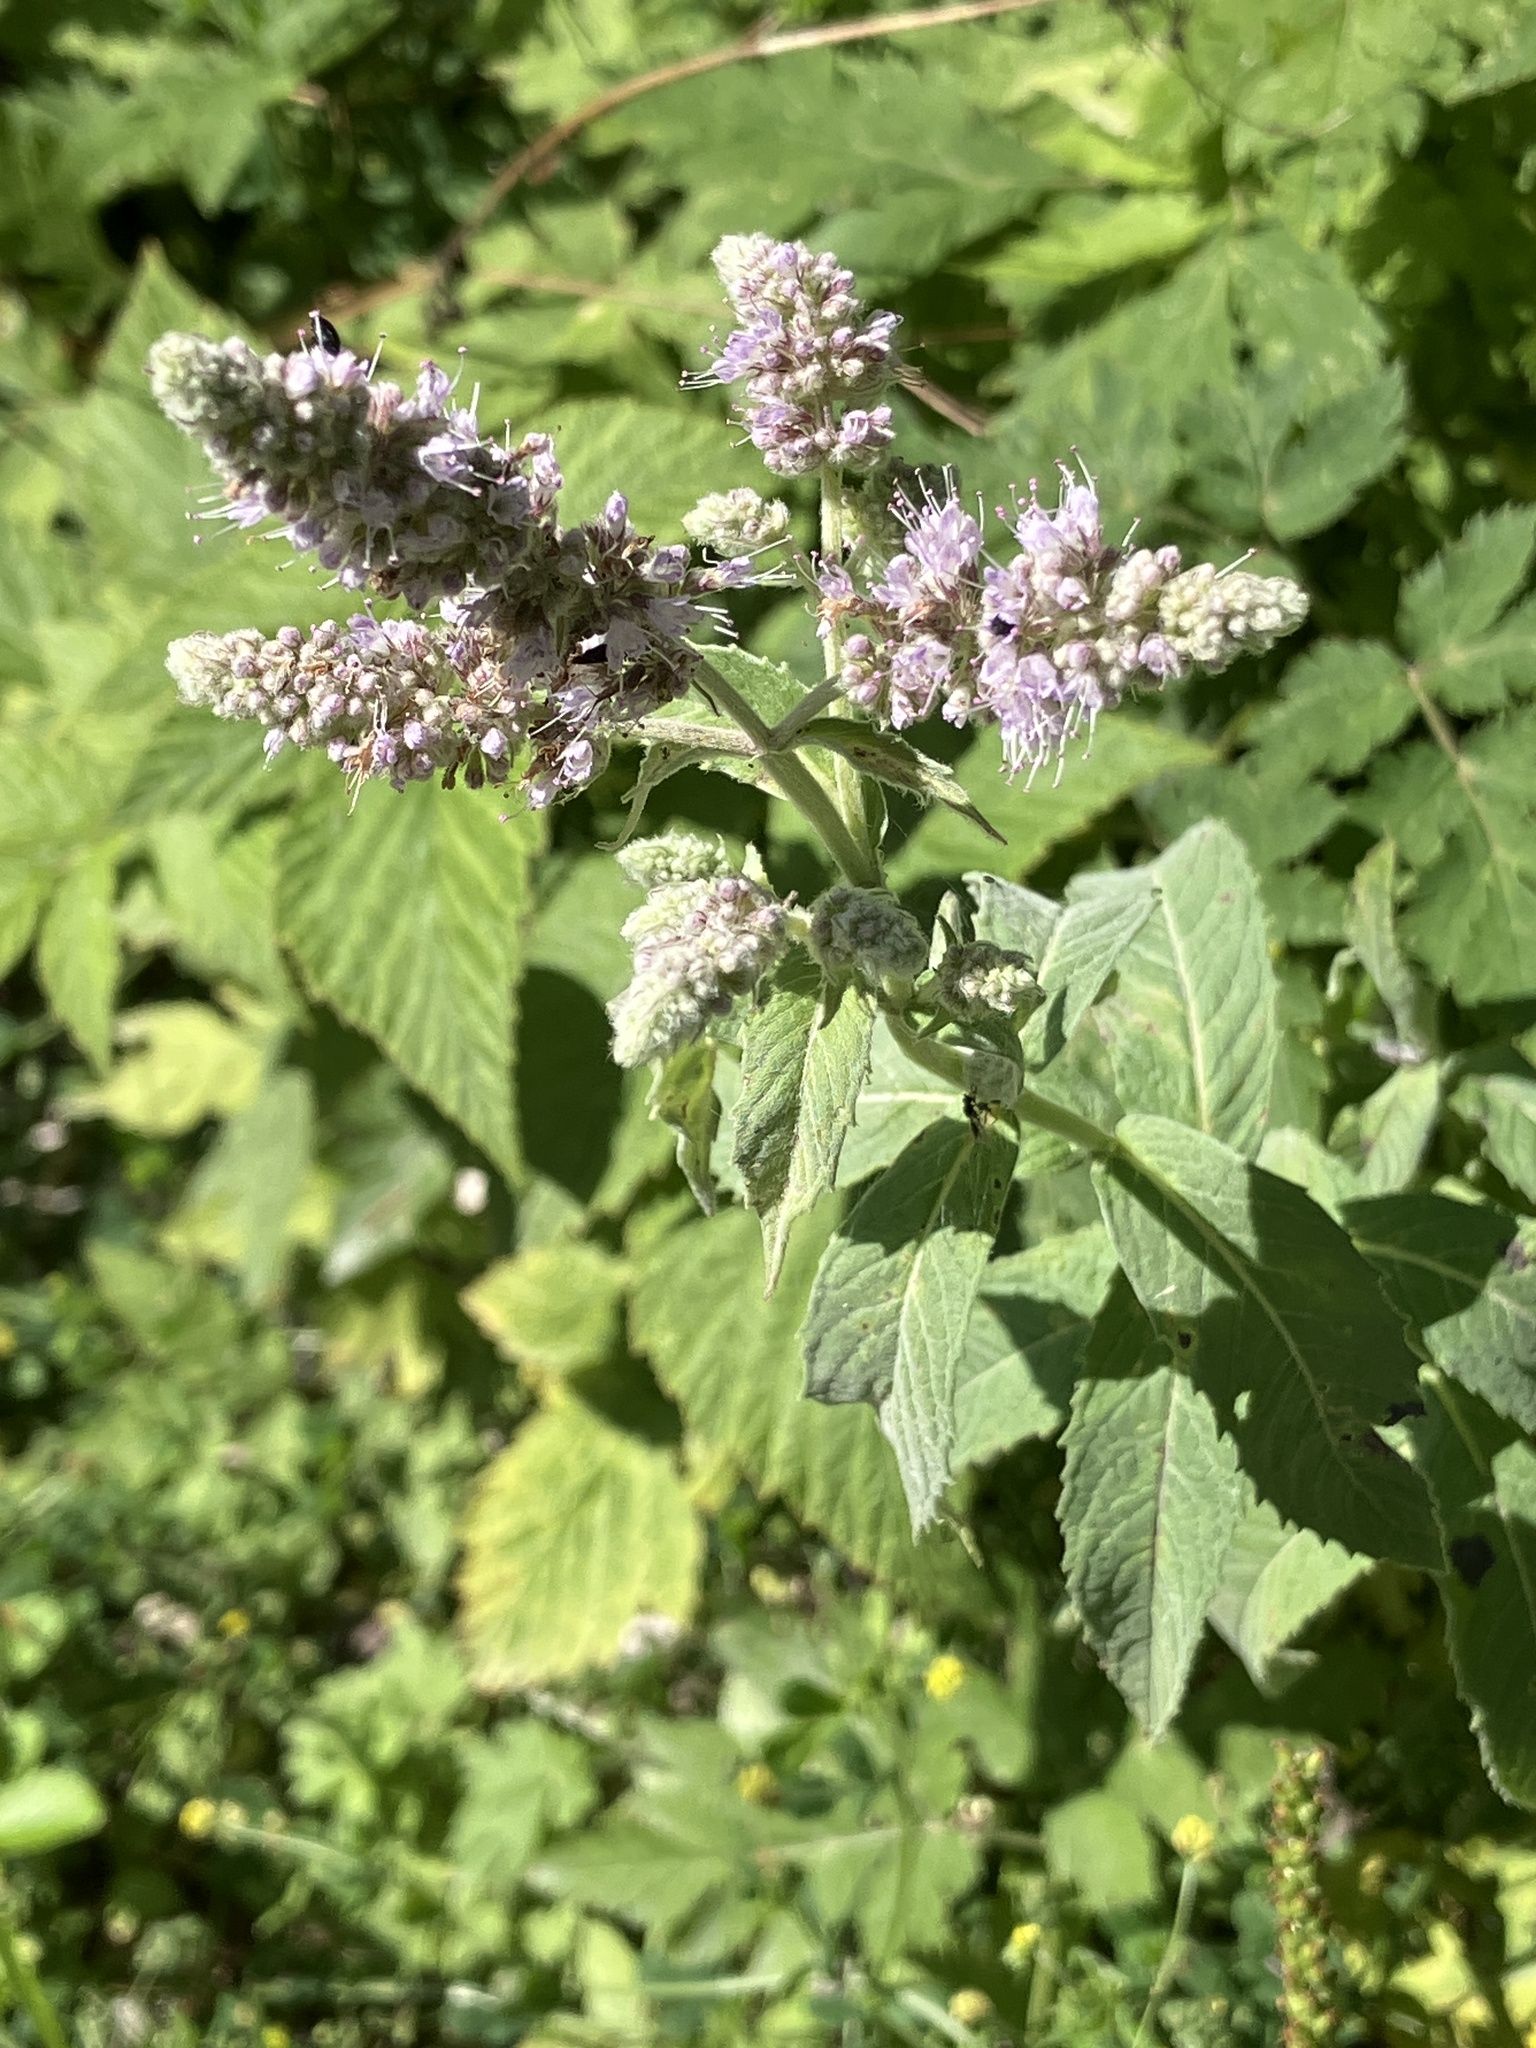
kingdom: Plantae
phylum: Tracheophyta
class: Magnoliopsida
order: Lamiales
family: Lamiaceae
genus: Mentha
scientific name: Mentha longifolia
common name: Horse mint
